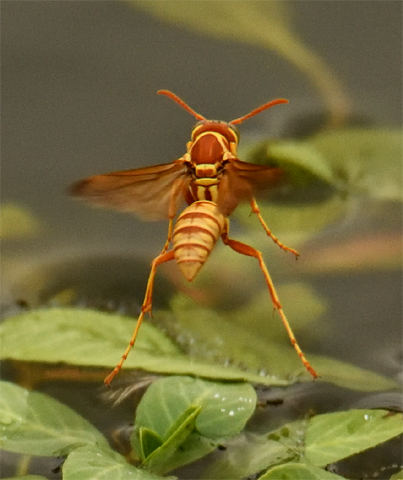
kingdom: Animalia
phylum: Arthropoda
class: Insecta
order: Hymenoptera
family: Eumenidae
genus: Polistes
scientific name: Polistes aurifer
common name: Paper wasp
